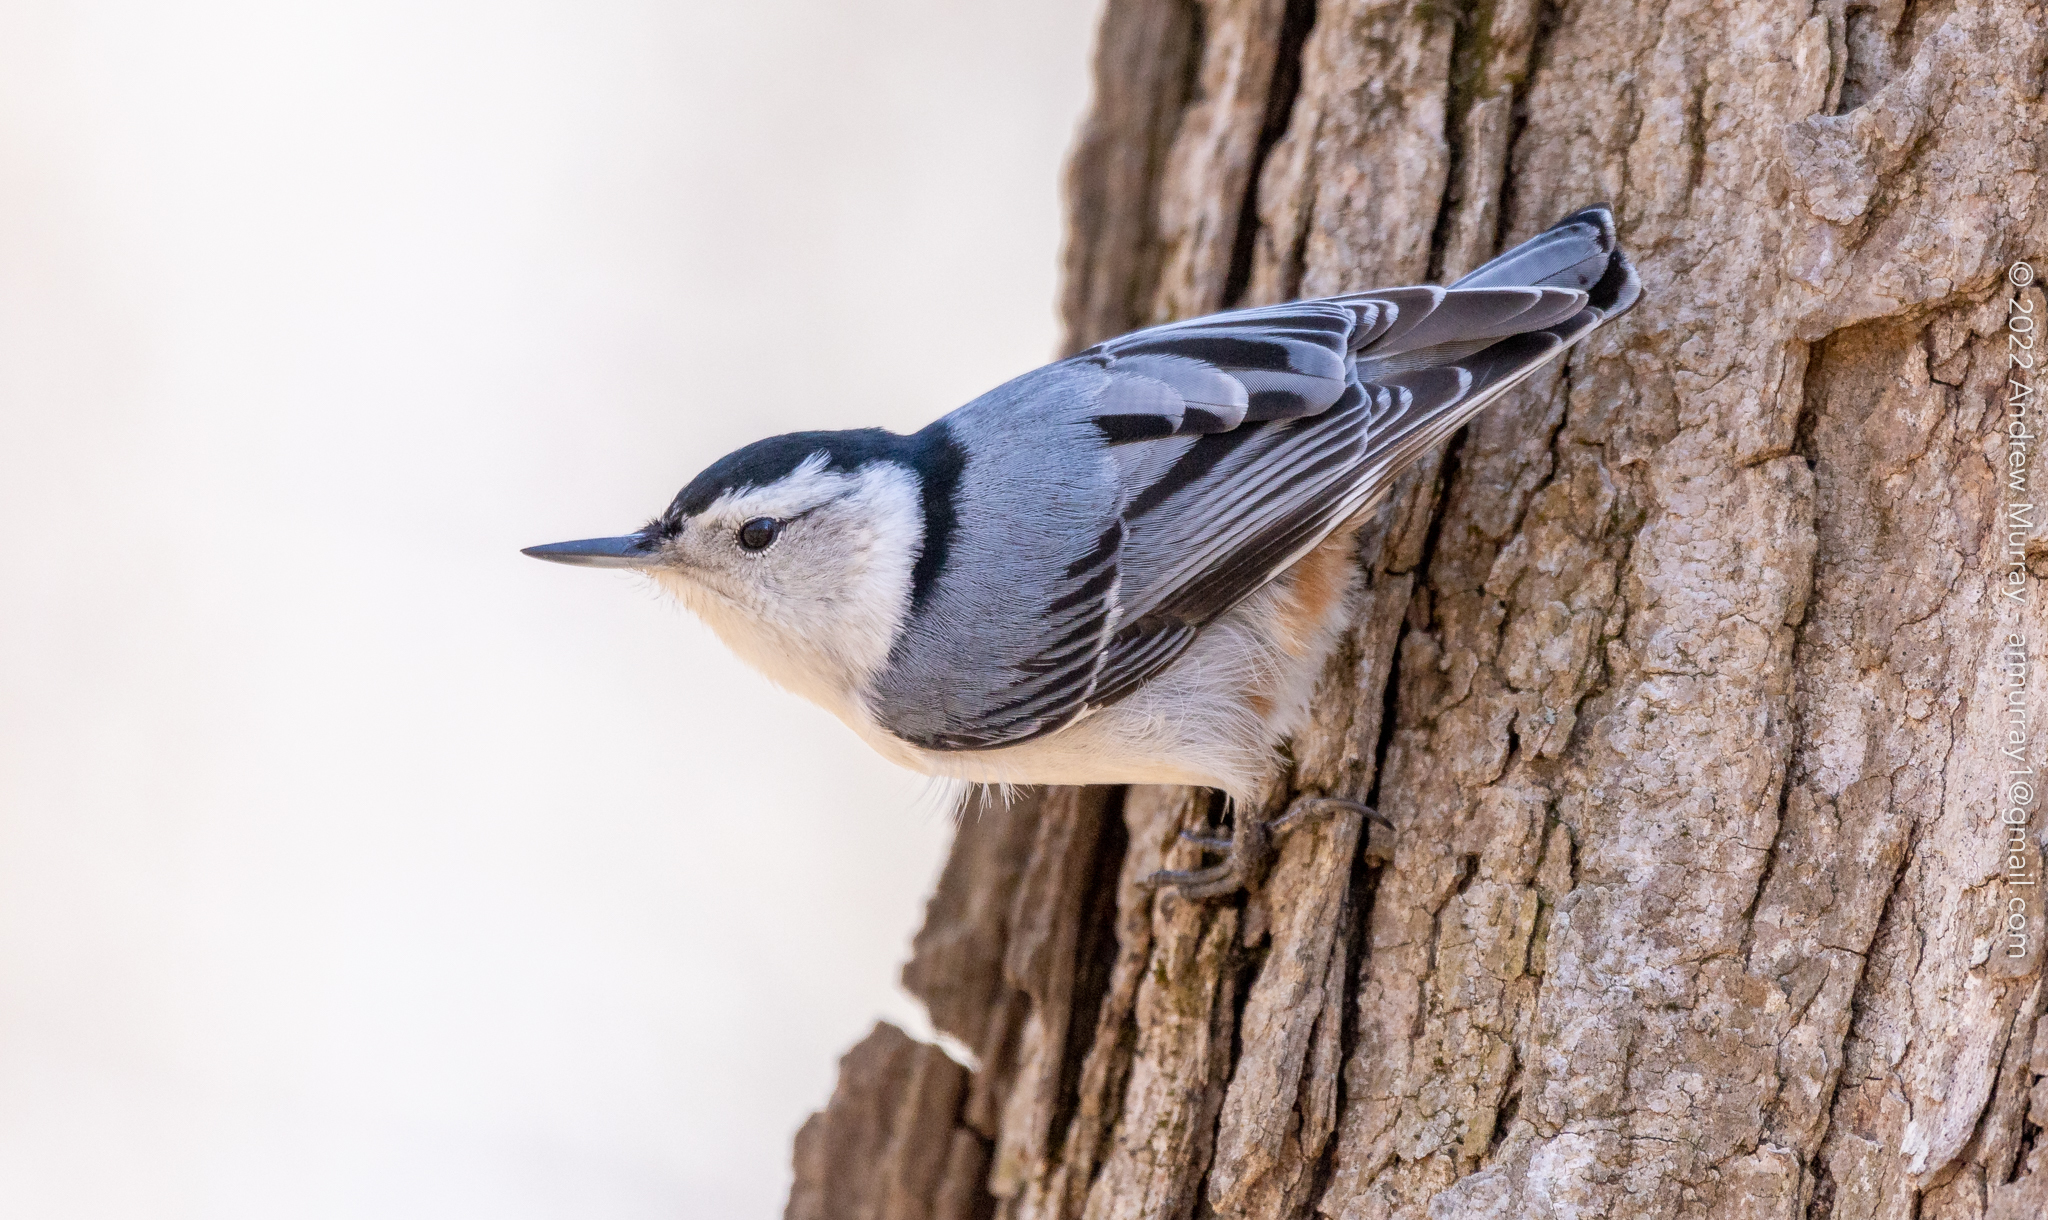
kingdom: Animalia
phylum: Chordata
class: Aves
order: Passeriformes
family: Sittidae
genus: Sitta
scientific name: Sitta carolinensis
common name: White-breasted nuthatch
